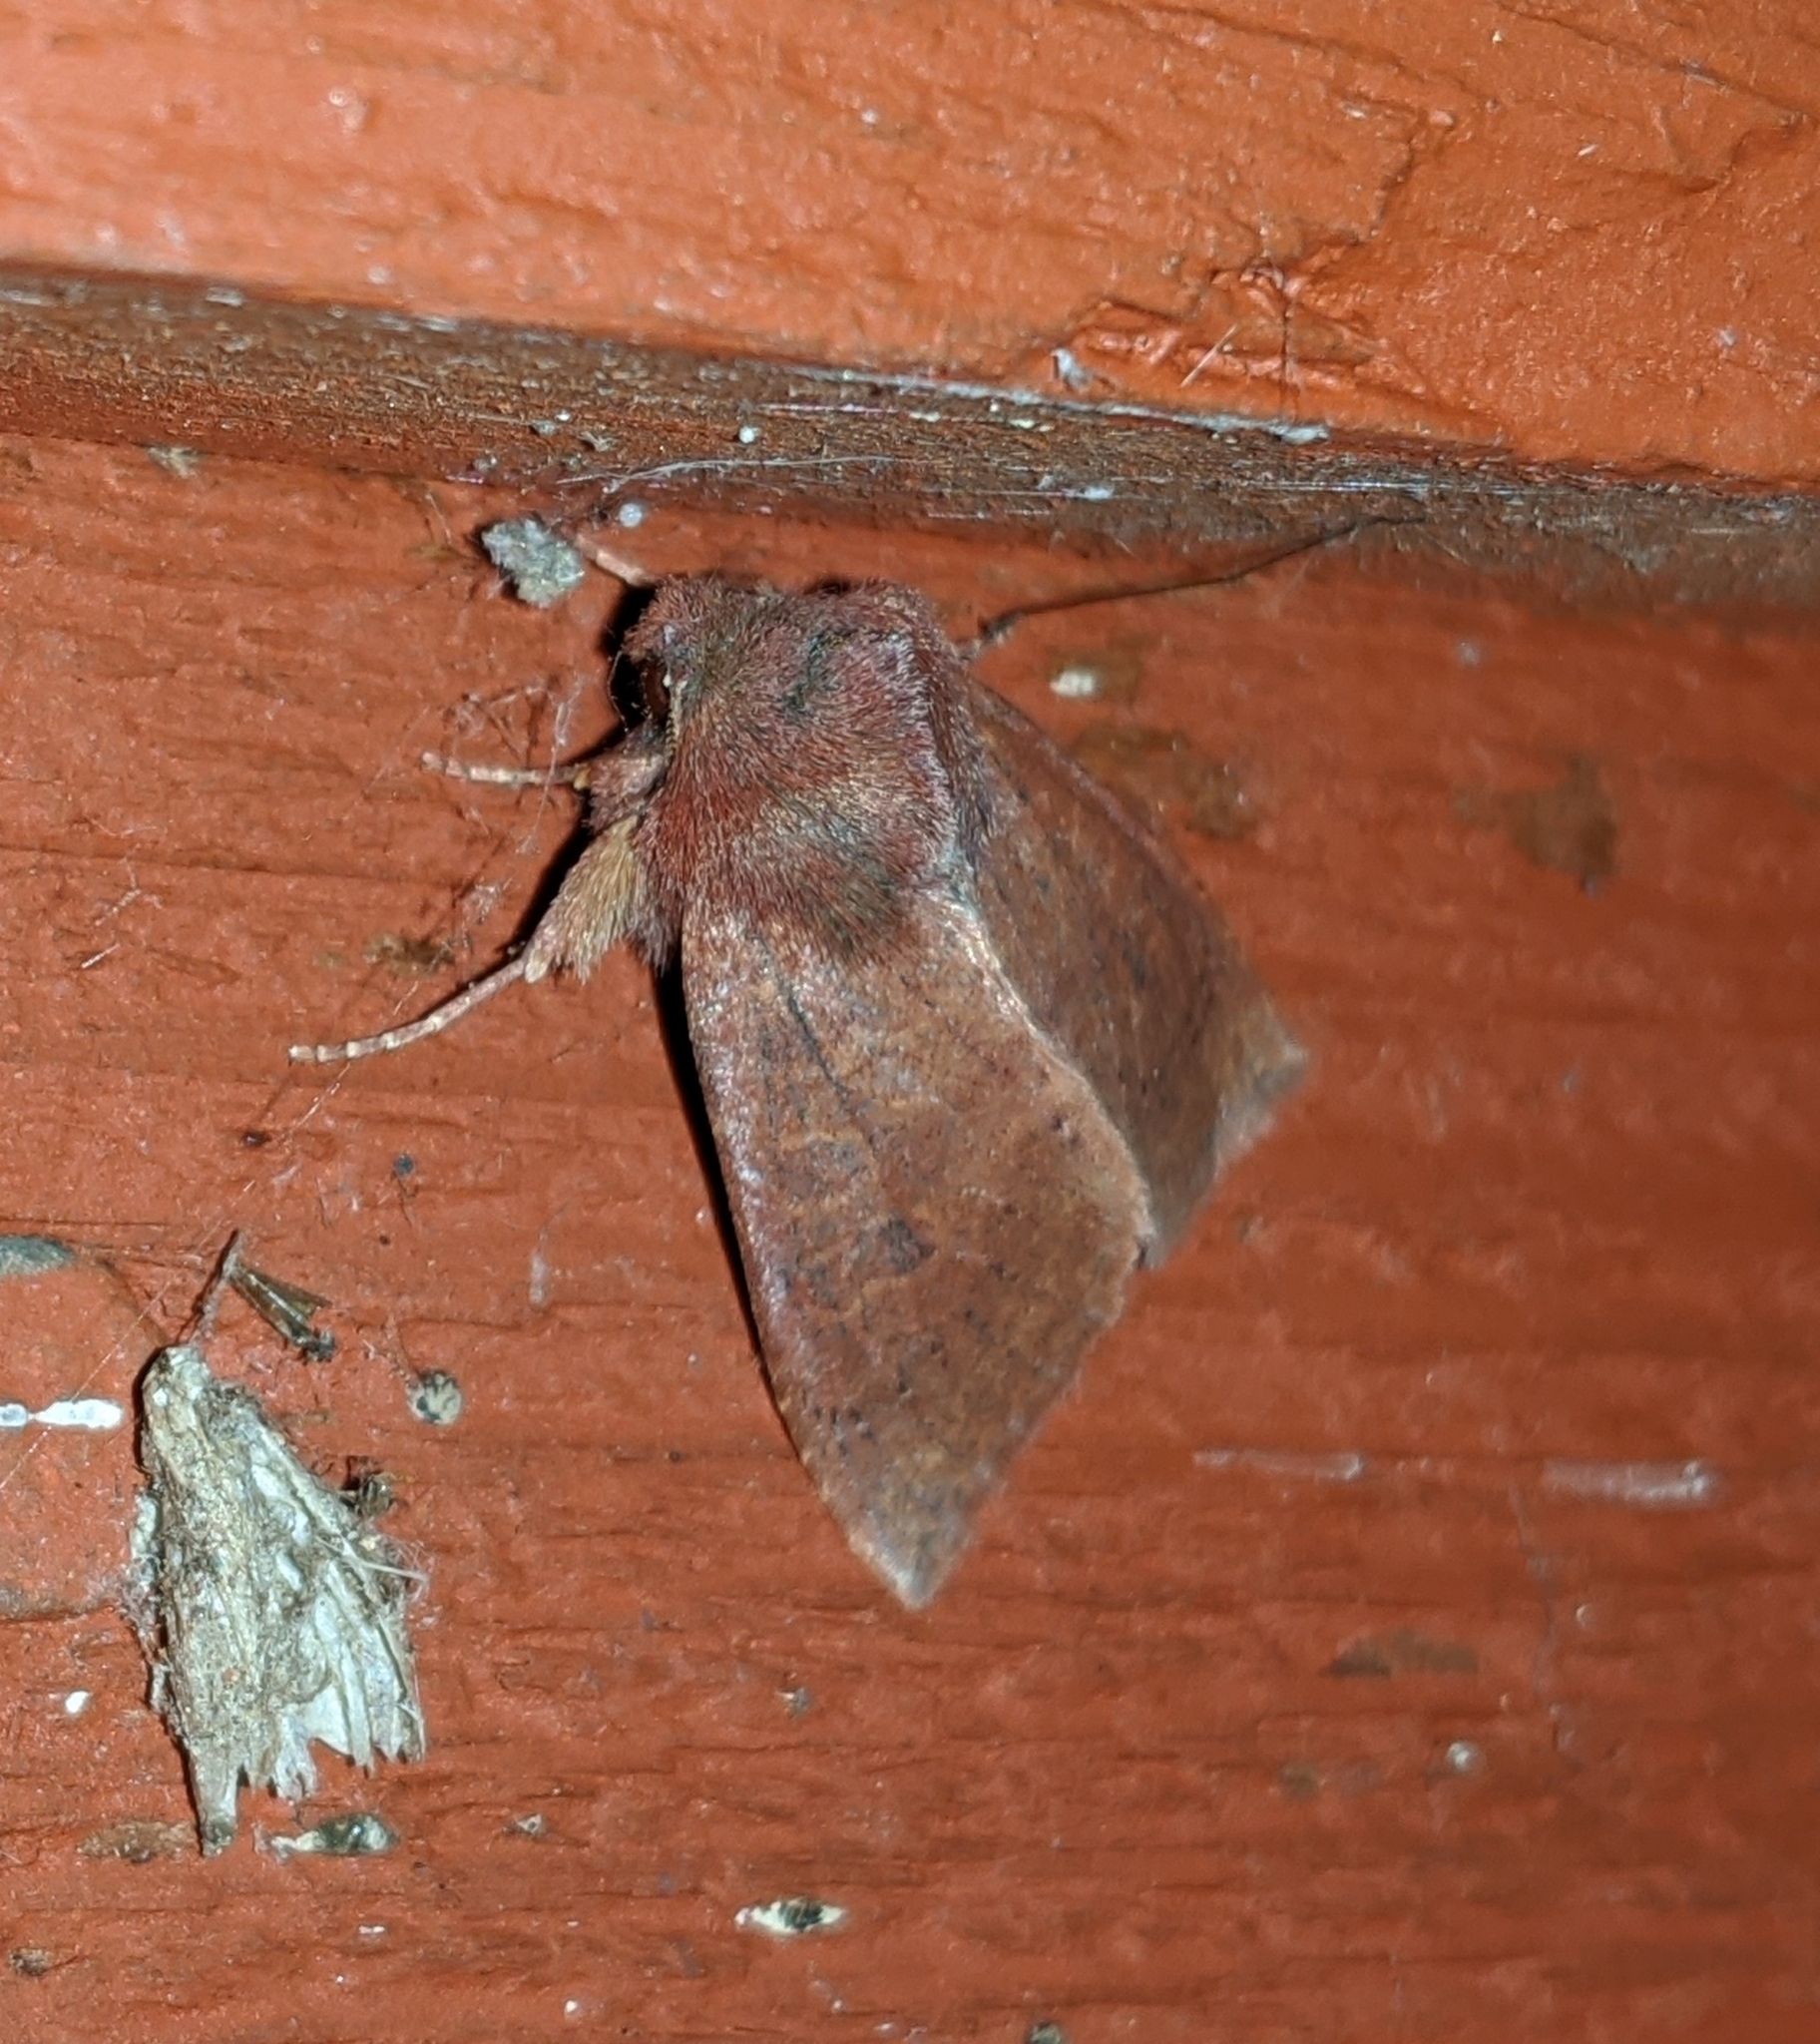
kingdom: Animalia
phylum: Arthropoda
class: Insecta
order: Lepidoptera
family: Noctuidae
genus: Orthosia
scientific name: Orthosia transparens
